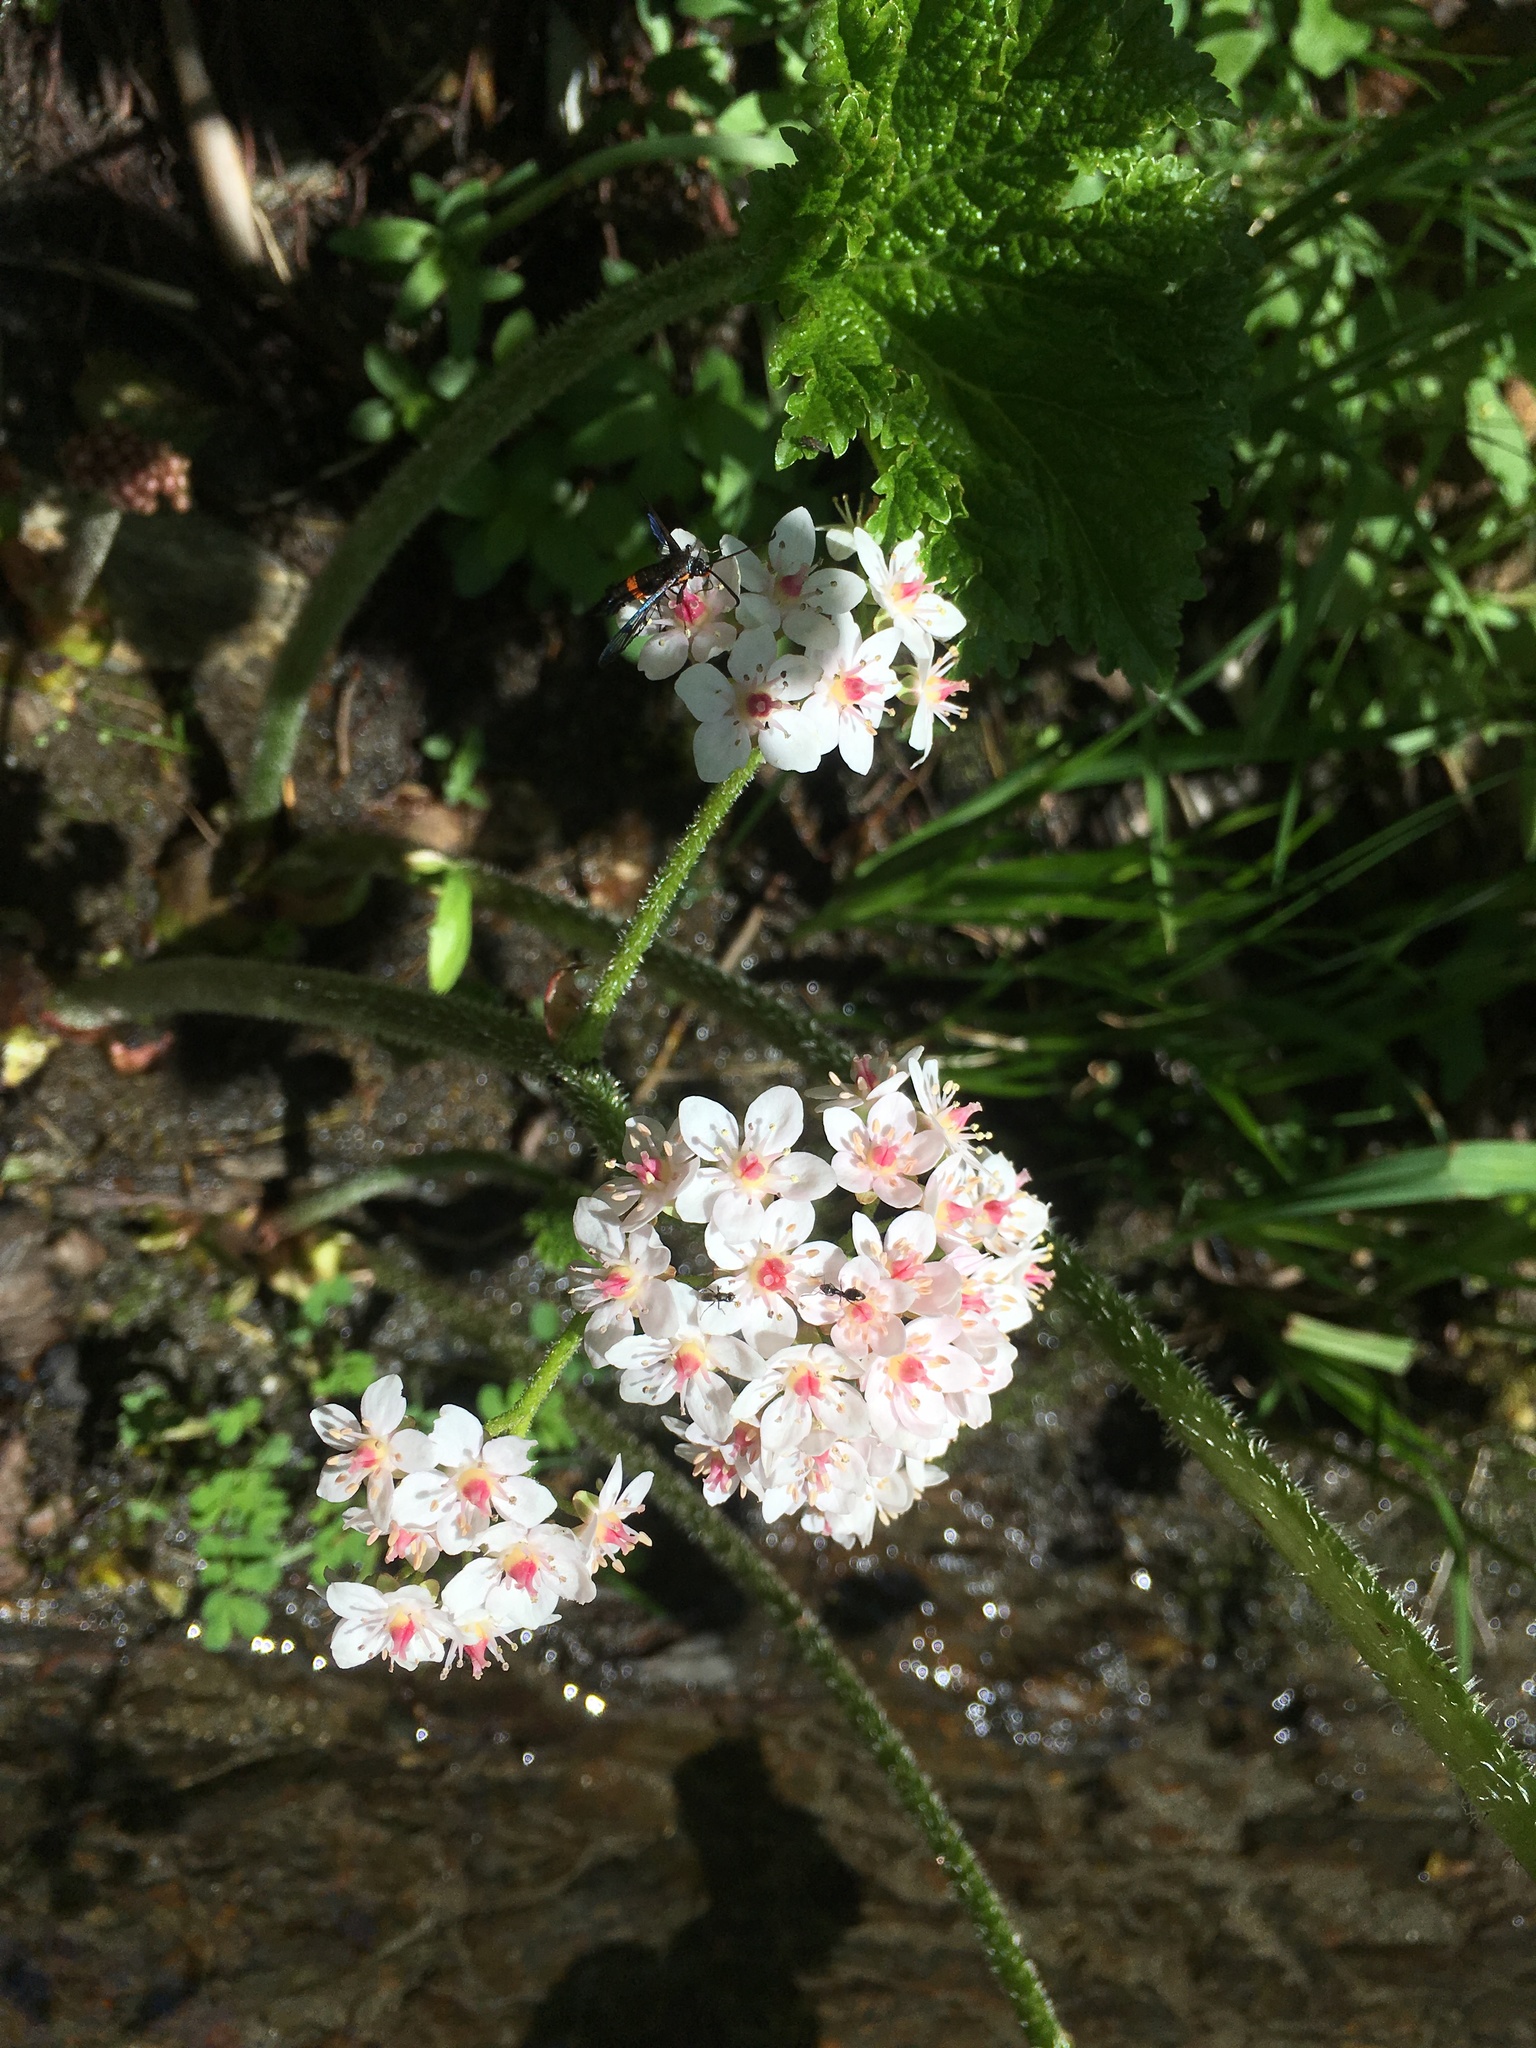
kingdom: Plantae
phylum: Tracheophyta
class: Magnoliopsida
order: Saxifragales
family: Saxifragaceae
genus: Darmera
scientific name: Darmera peltata
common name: Indian-rhubarb
